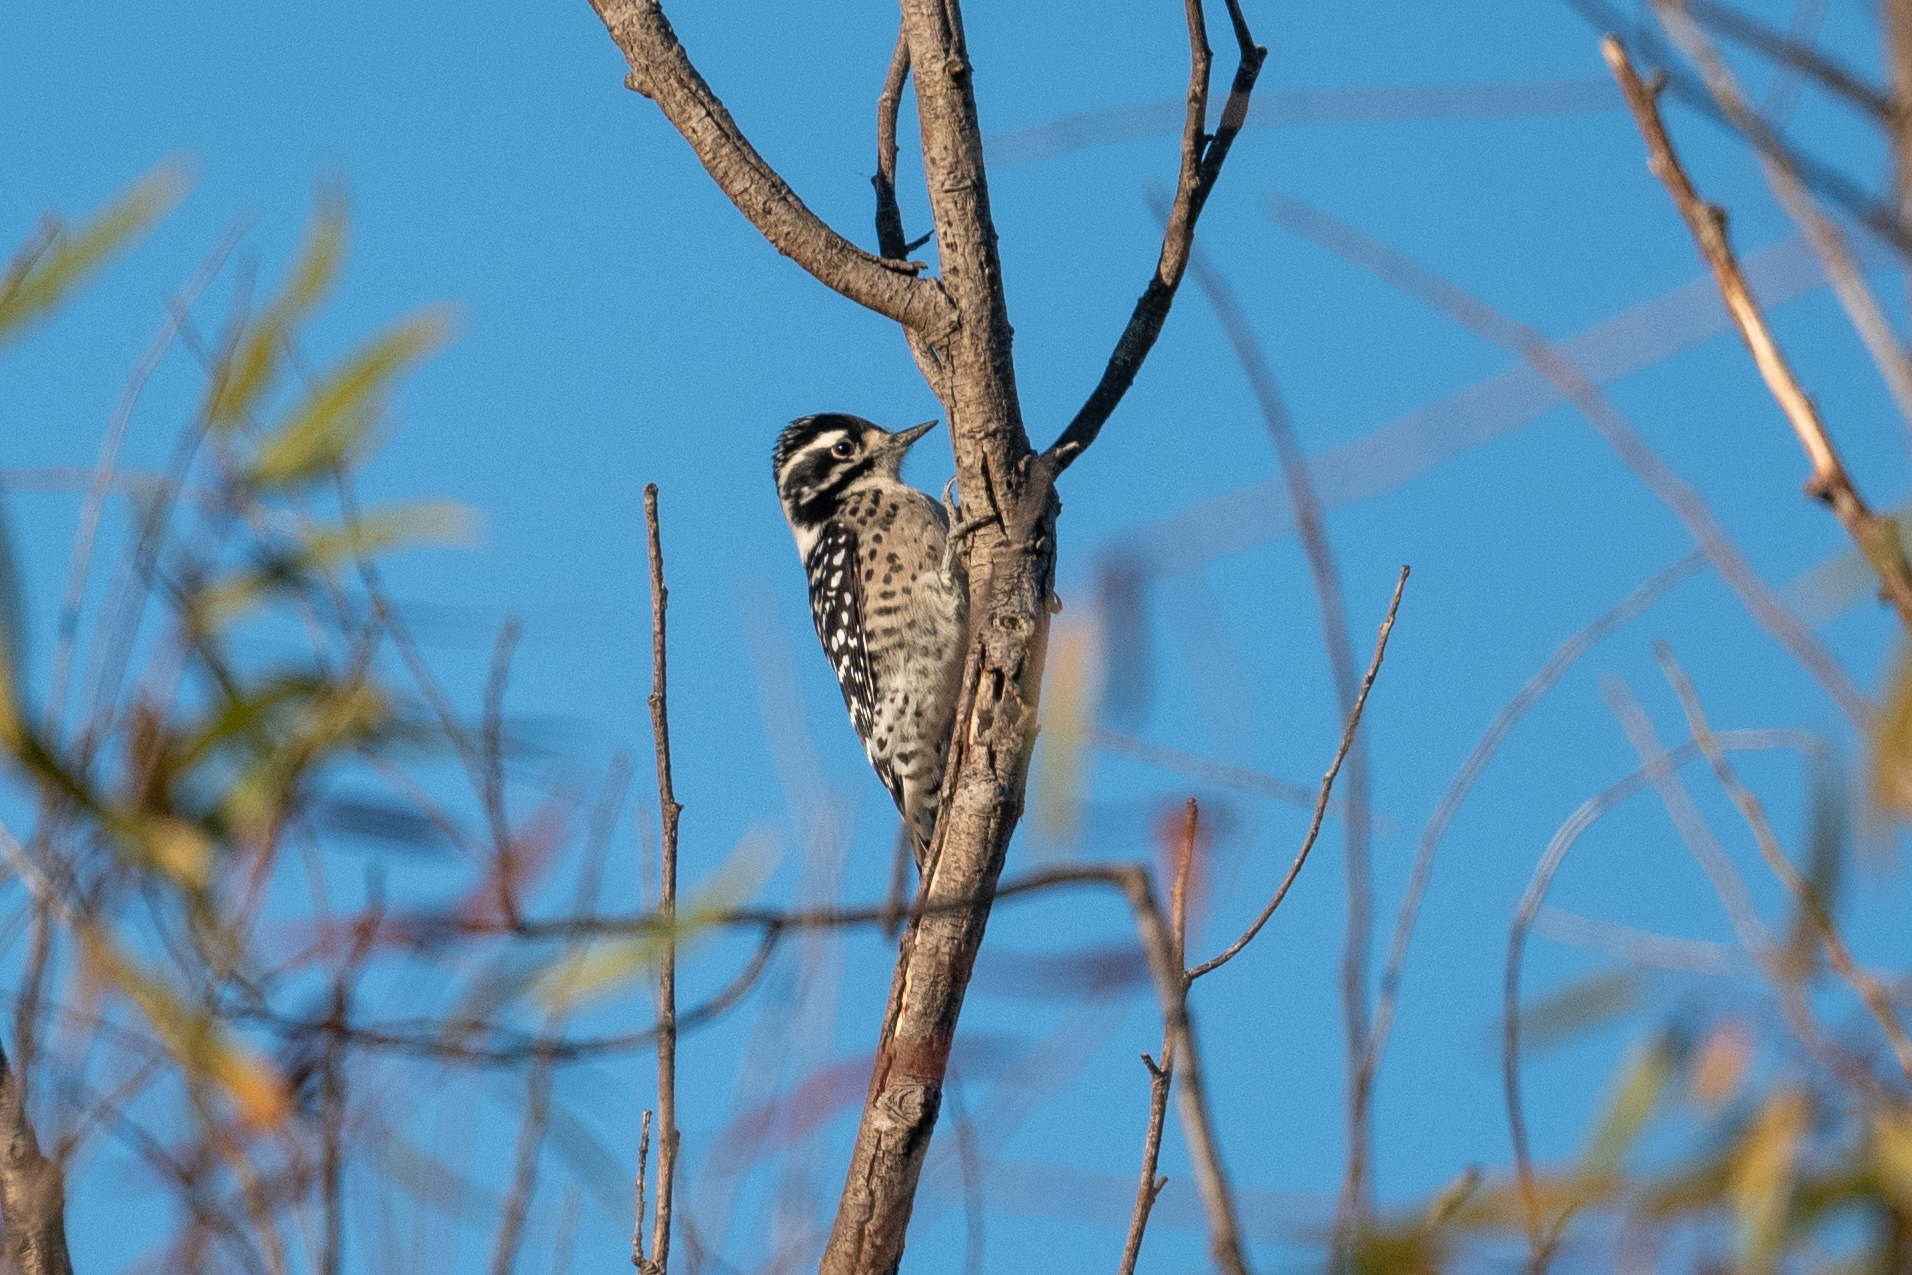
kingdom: Animalia
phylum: Chordata
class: Aves
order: Piciformes
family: Picidae
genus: Dryobates
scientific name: Dryobates nuttallii
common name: Nuttall's woodpecker
